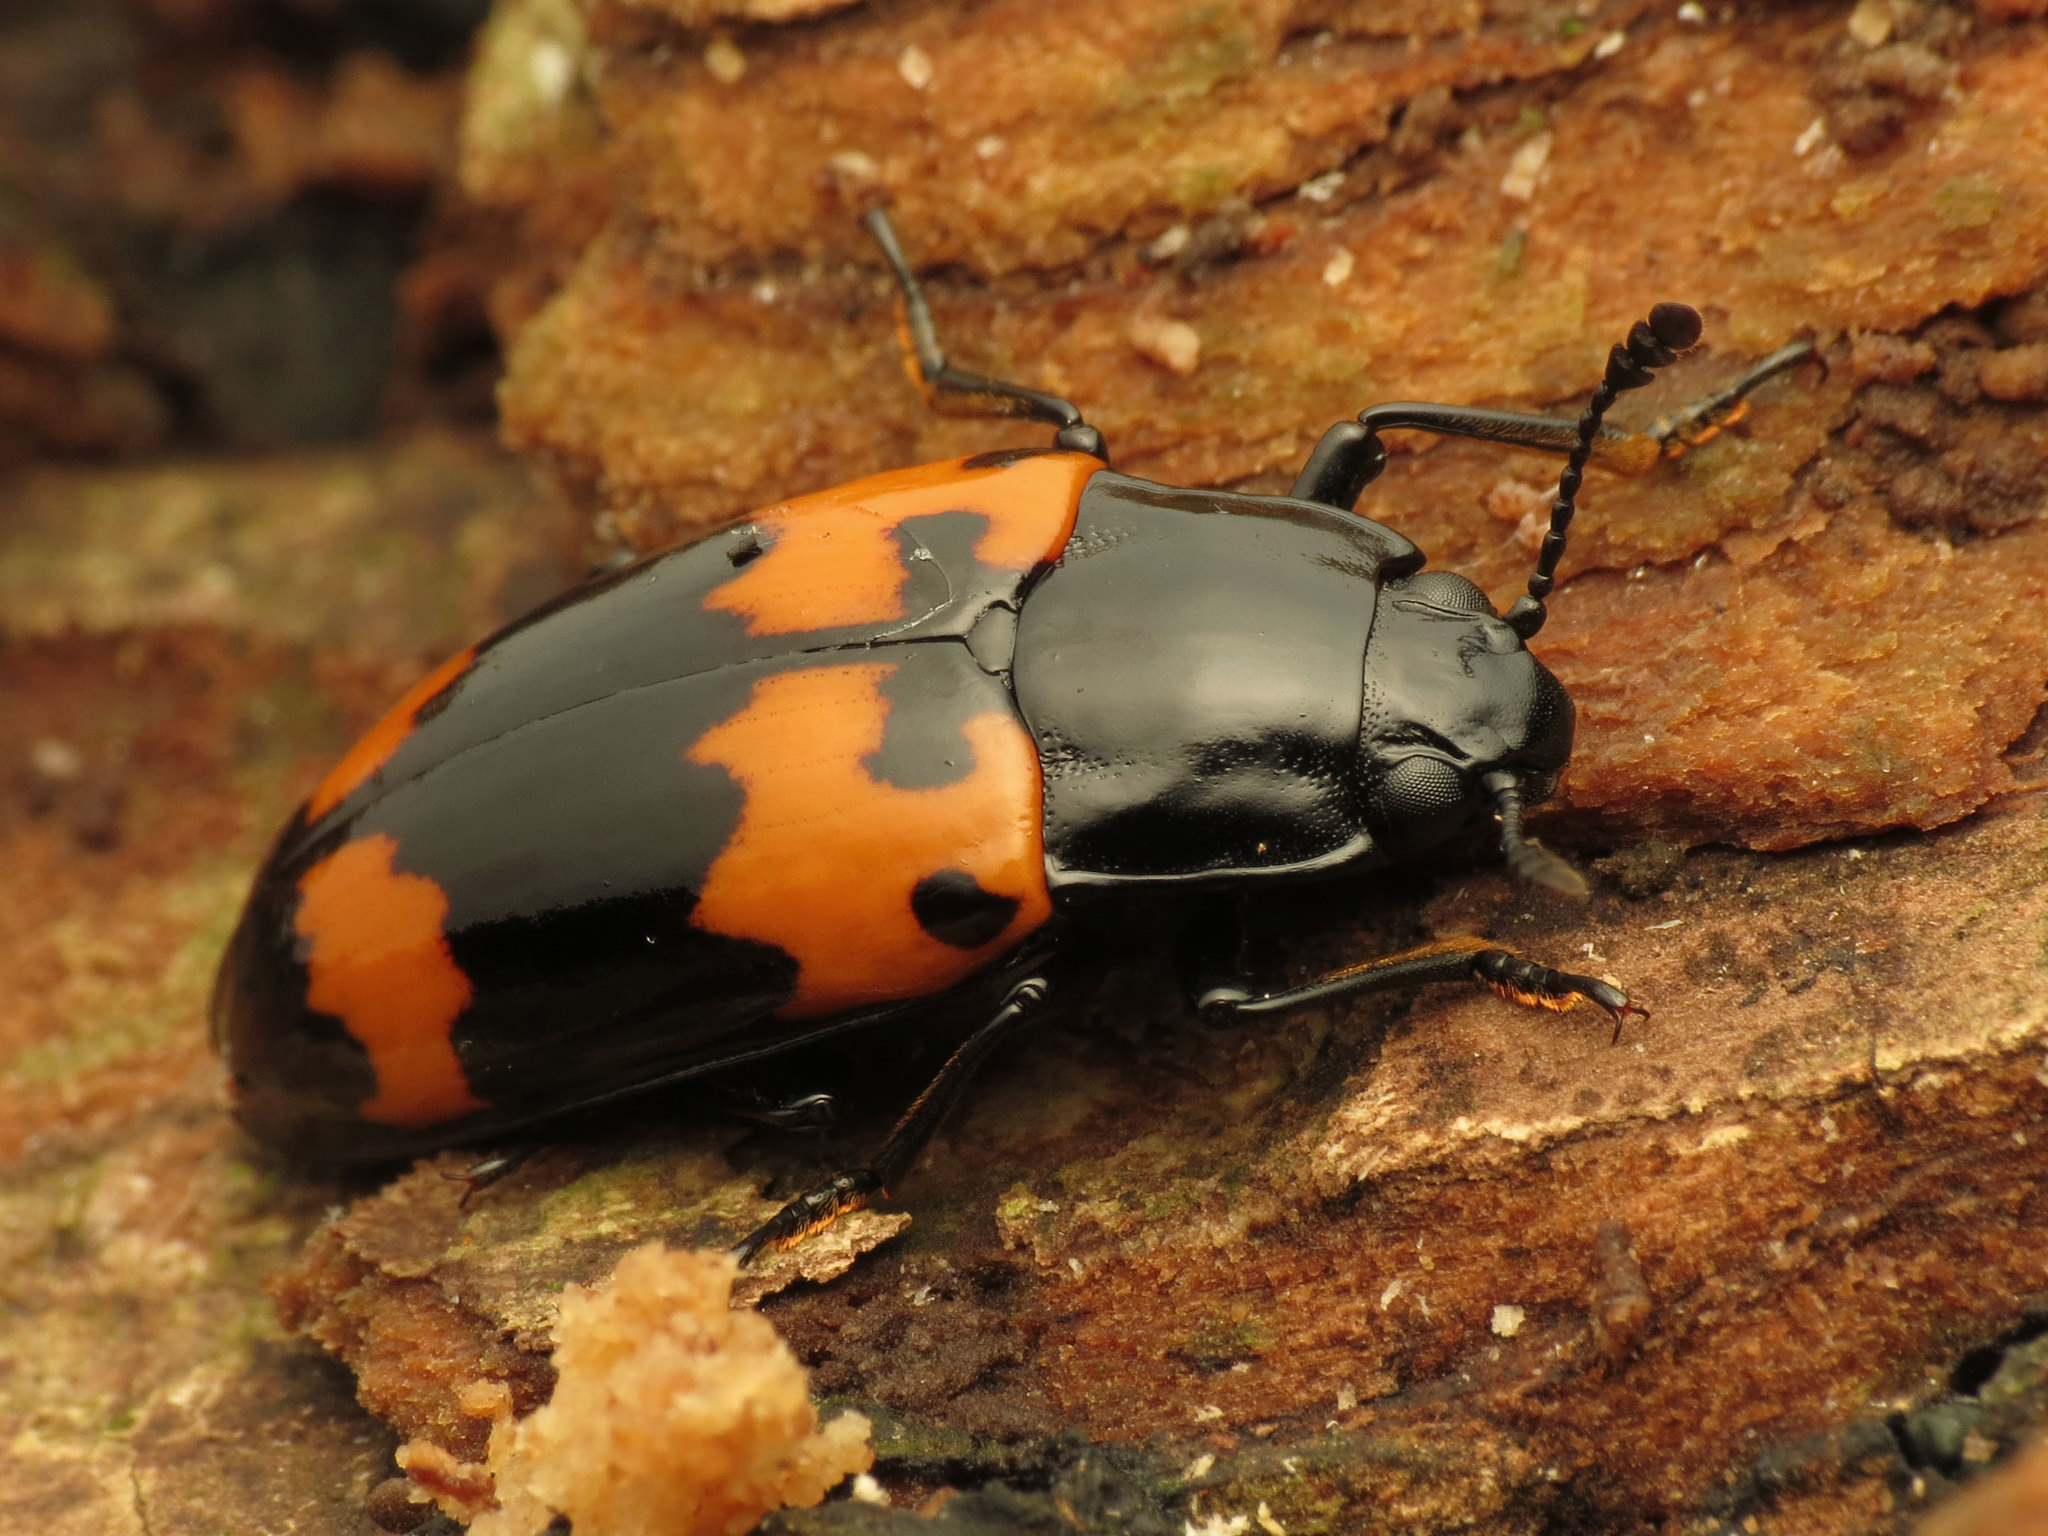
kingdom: Animalia
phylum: Arthropoda
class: Insecta
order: Coleoptera
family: Erotylidae
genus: Megalodacne
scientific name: Megalodacne heros
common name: Pleasing fungus beetle
